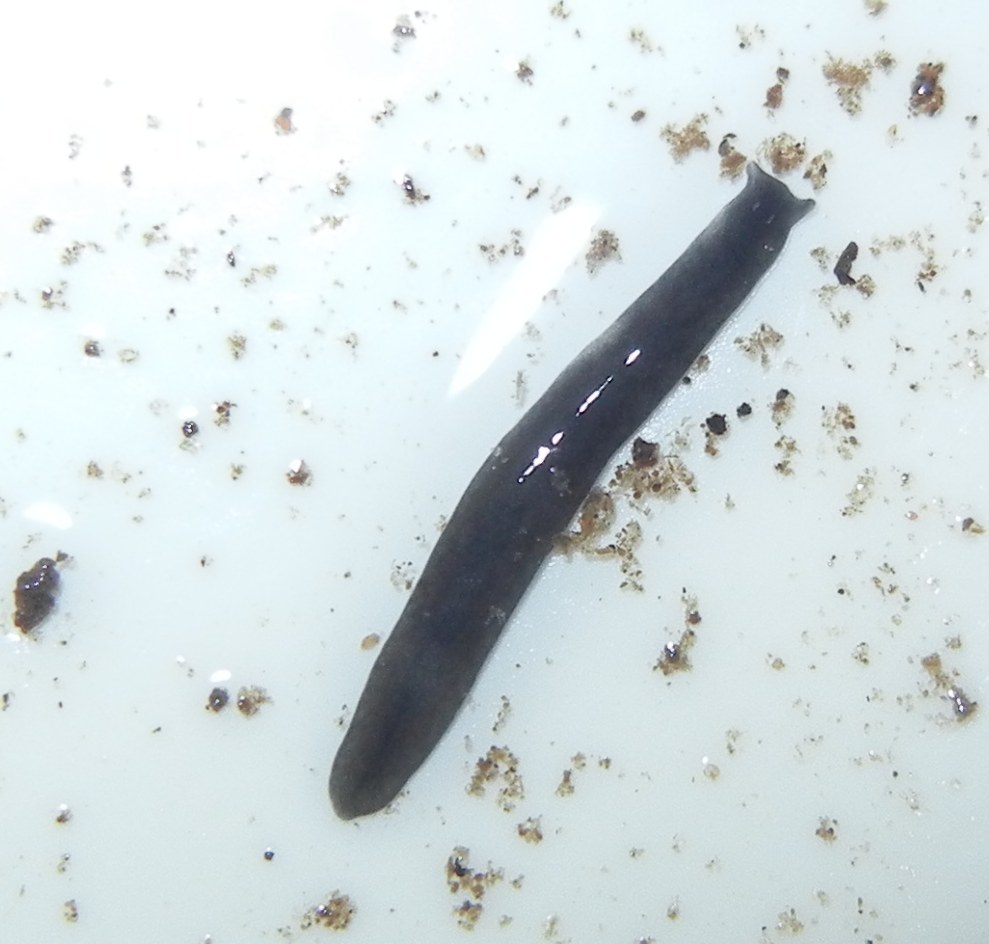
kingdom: Animalia
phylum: Platyhelminthes
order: Tricladida
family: Planariidae
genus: Crenobia
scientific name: Crenobia alpina
